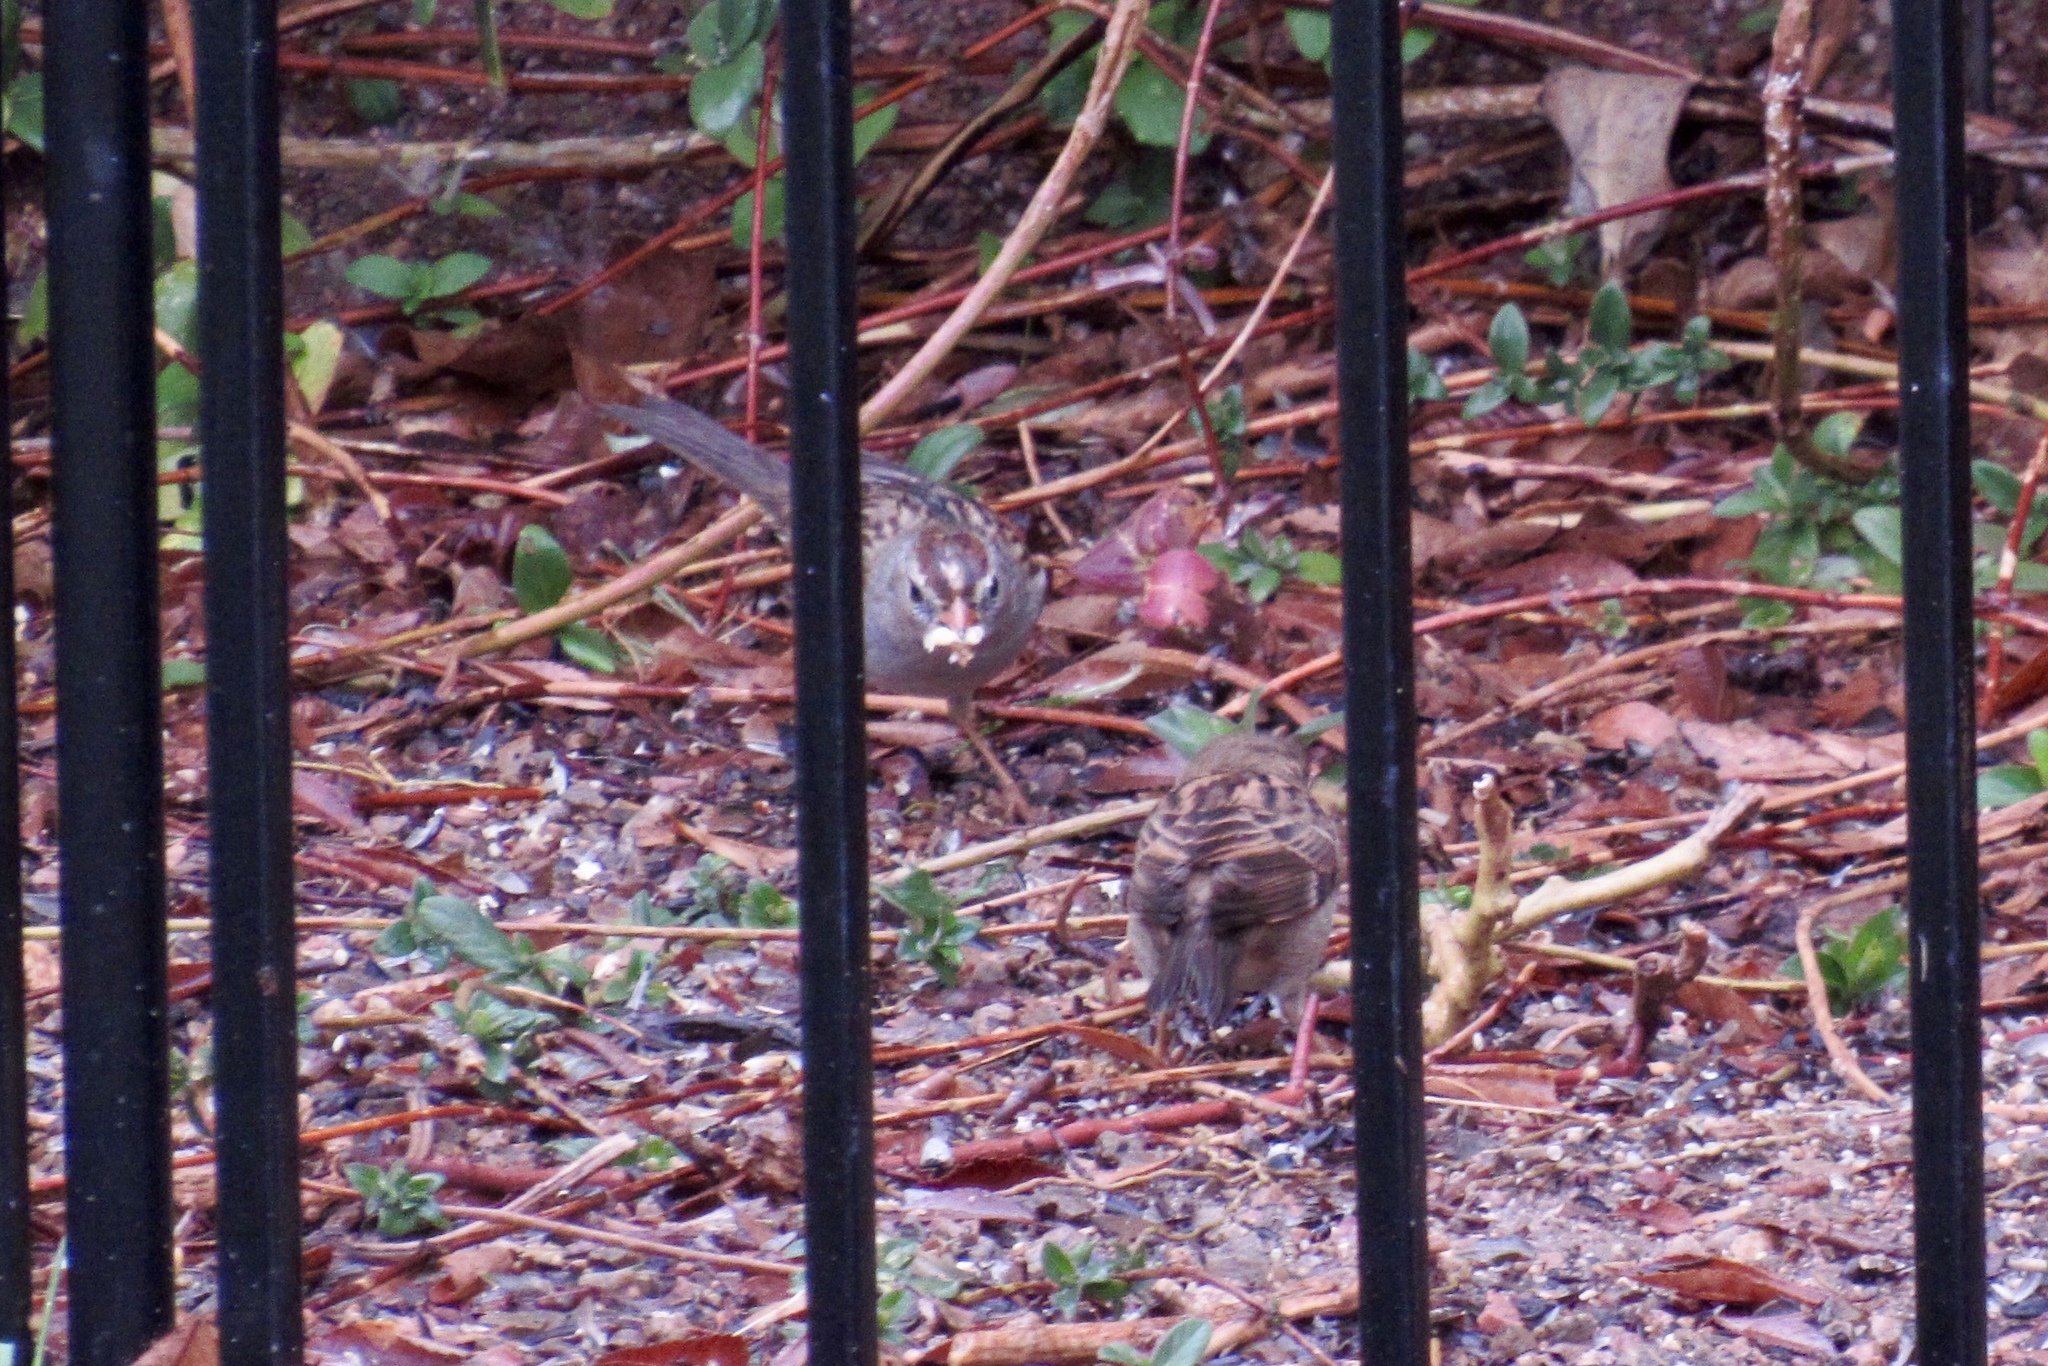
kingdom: Animalia
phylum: Chordata
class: Aves
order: Passeriformes
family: Passerellidae
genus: Zonotrichia
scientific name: Zonotrichia leucophrys
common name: White-crowned sparrow
